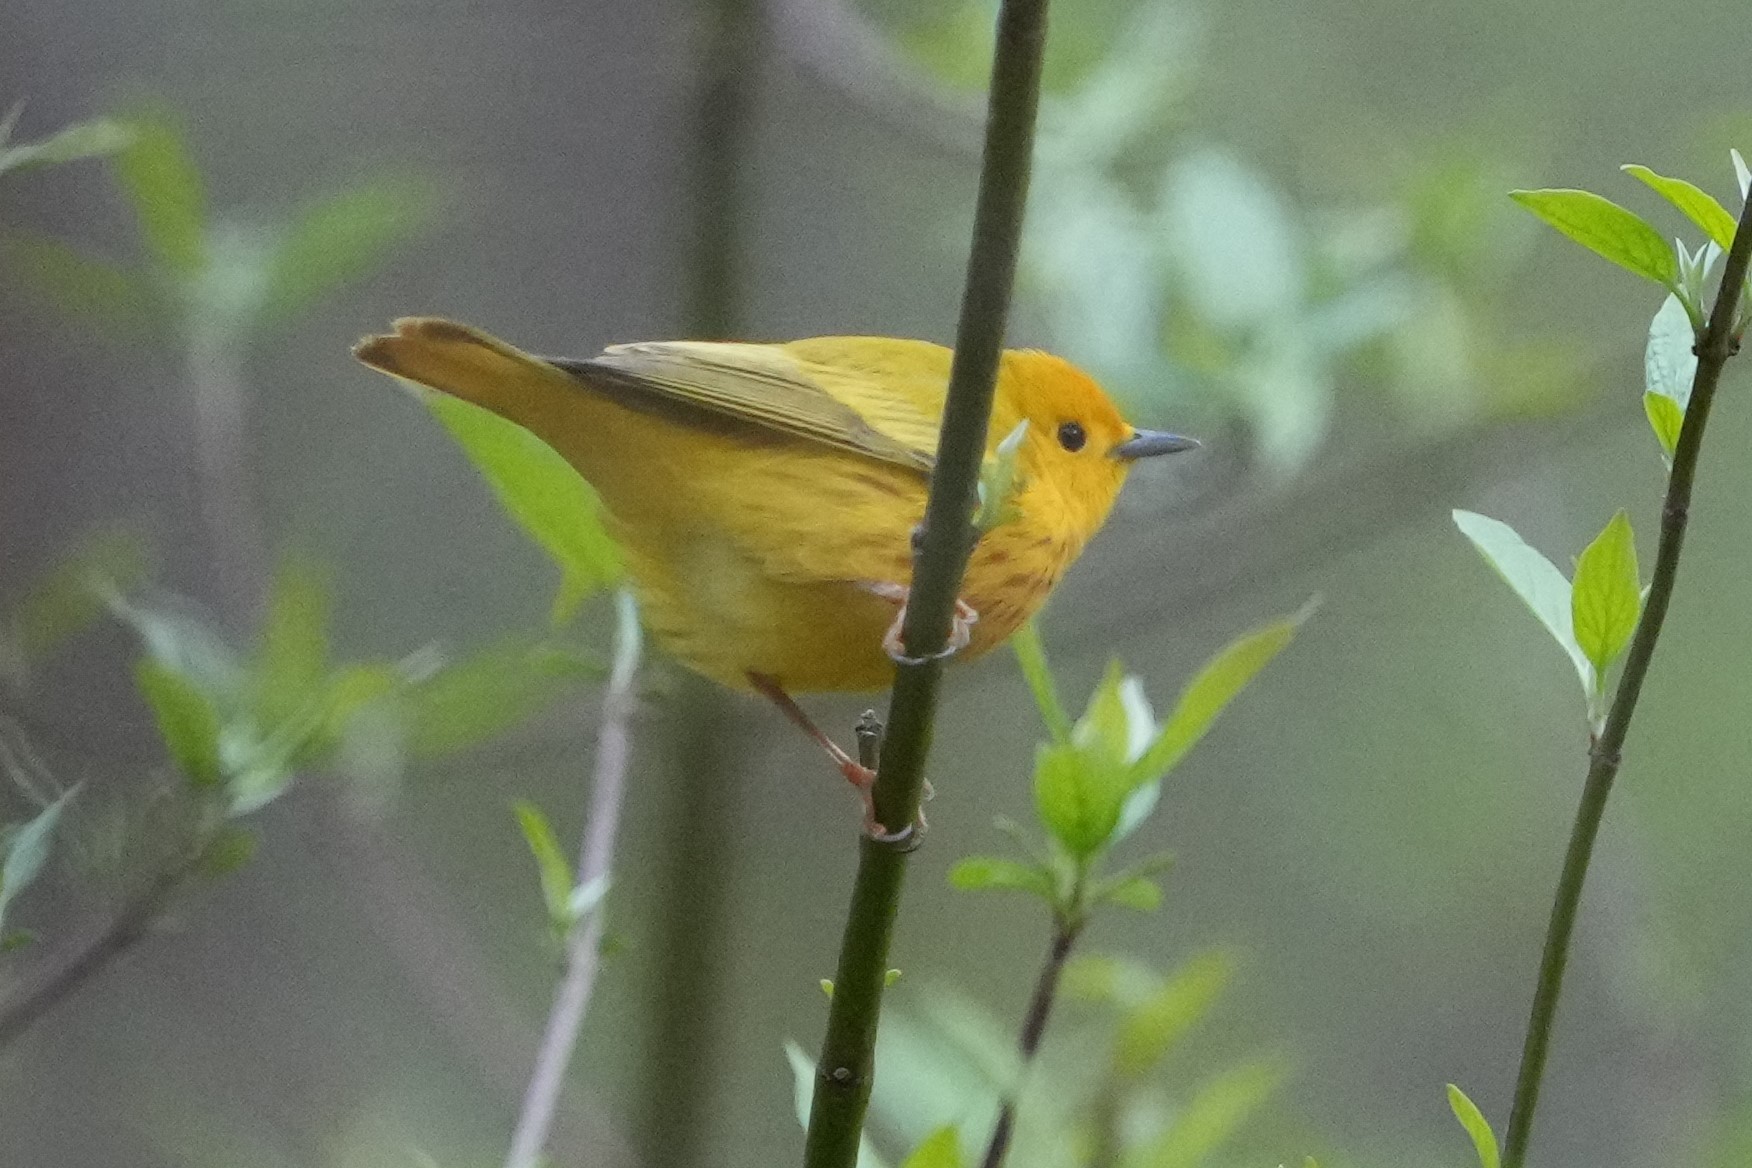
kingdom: Animalia
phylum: Chordata
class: Aves
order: Passeriformes
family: Parulidae
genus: Setophaga
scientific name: Setophaga petechia
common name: Yellow warbler
